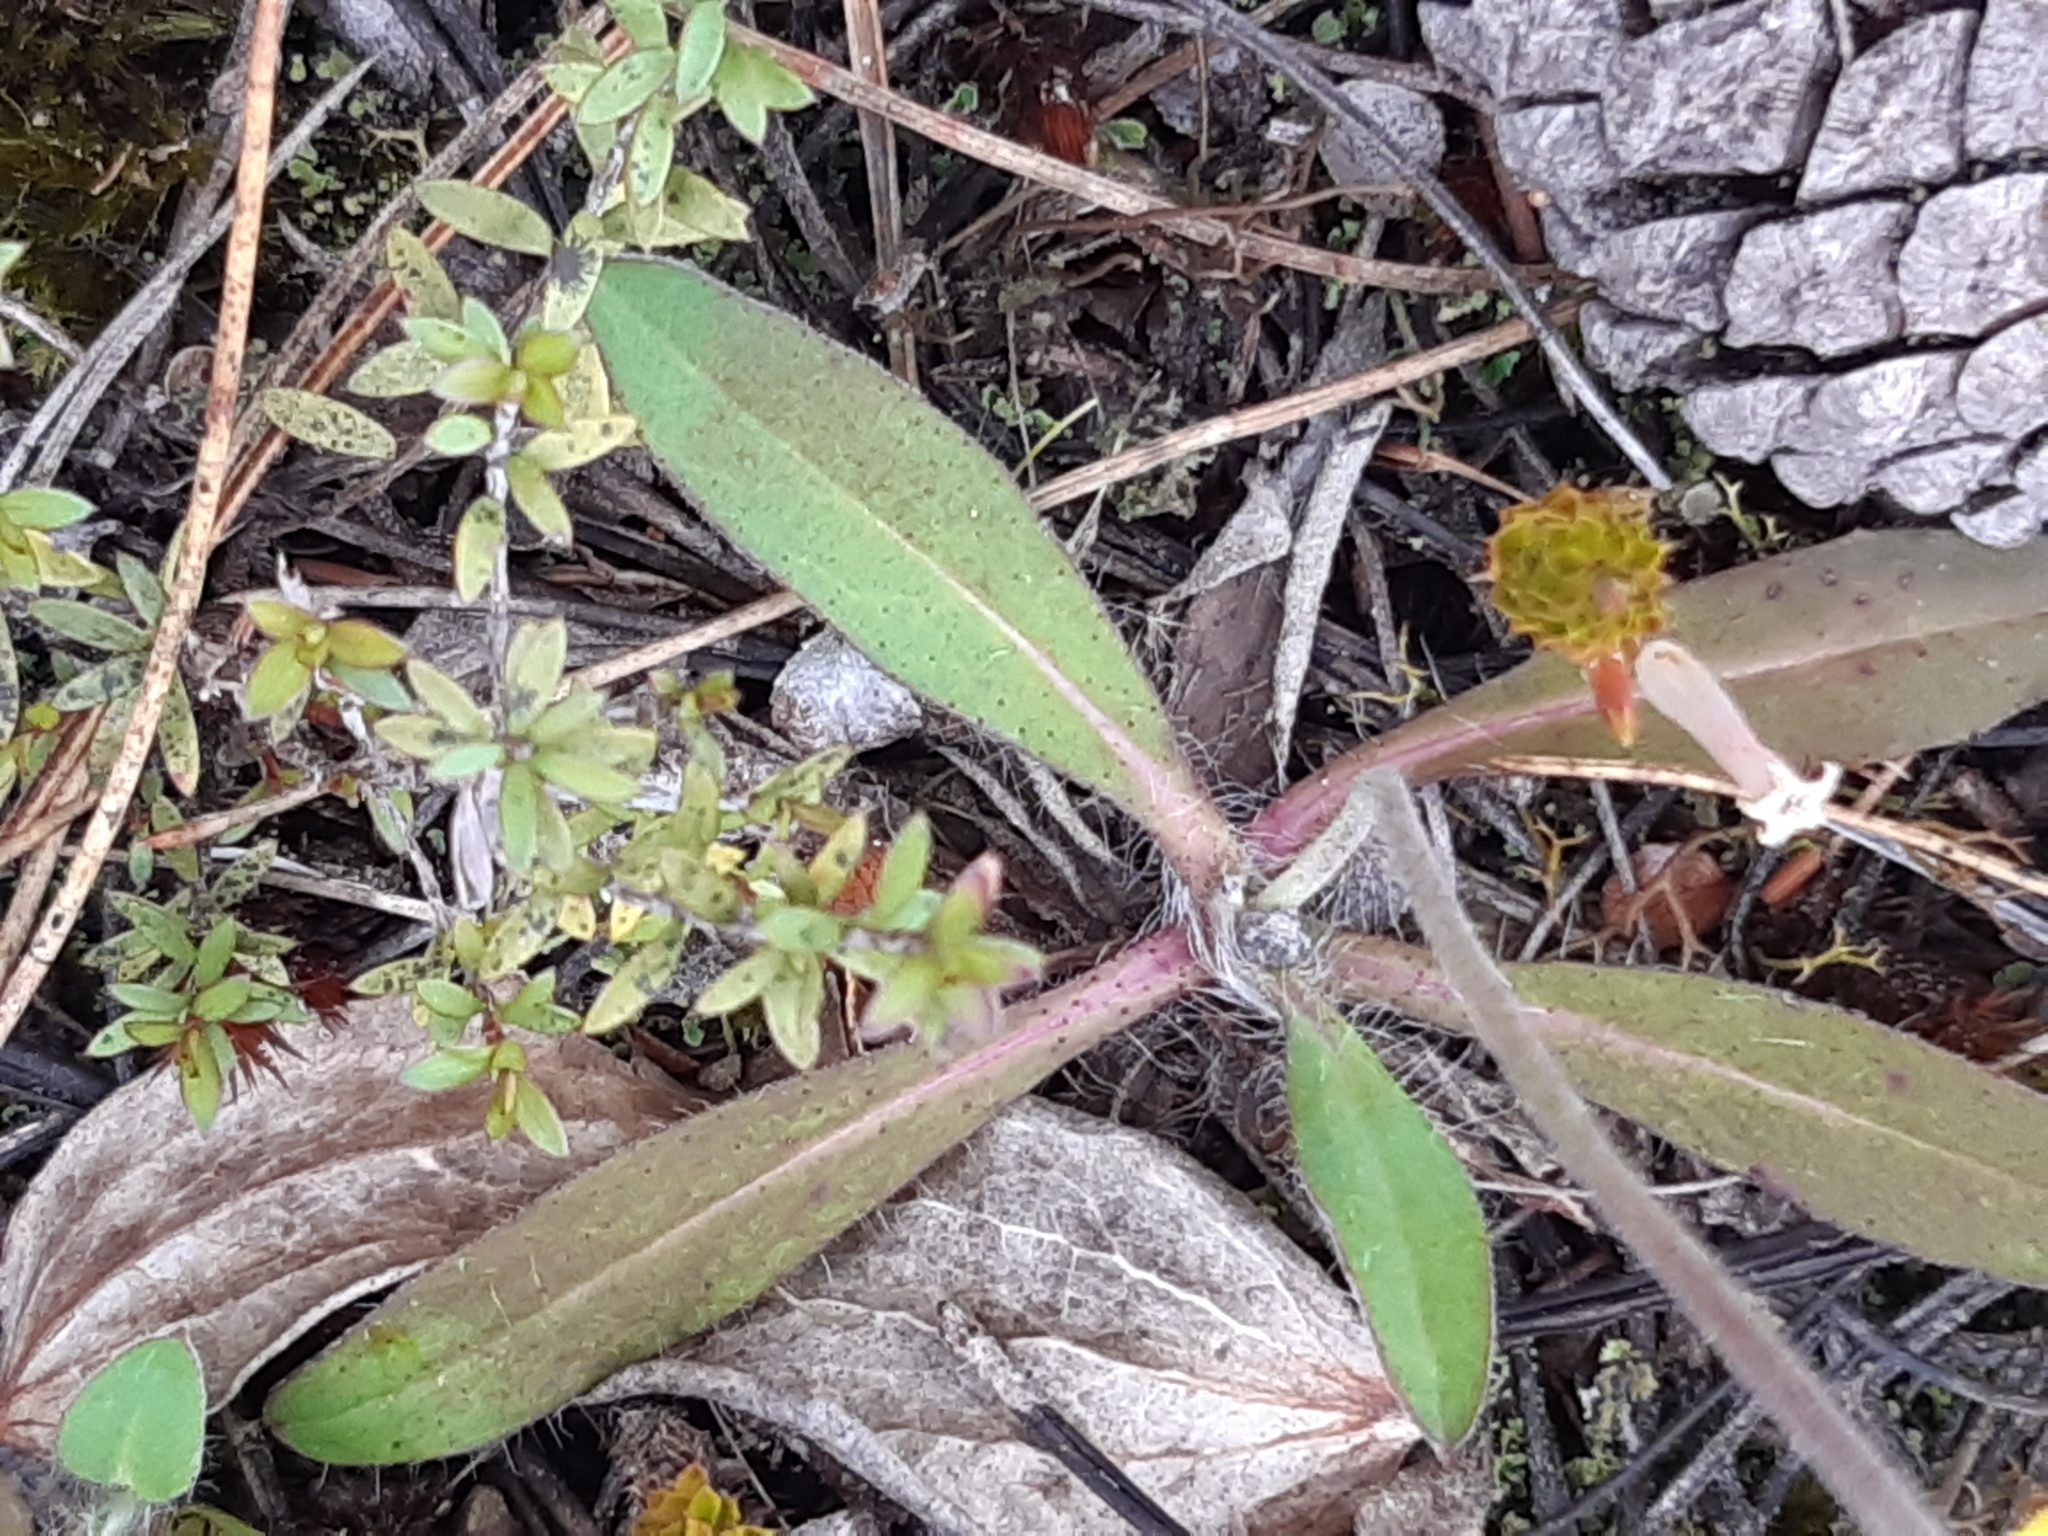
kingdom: Plantae
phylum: Tracheophyta
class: Magnoliopsida
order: Asterales
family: Asteraceae
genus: Pilosella
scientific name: Pilosella officinarum
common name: Mouse-ear hawkweed
